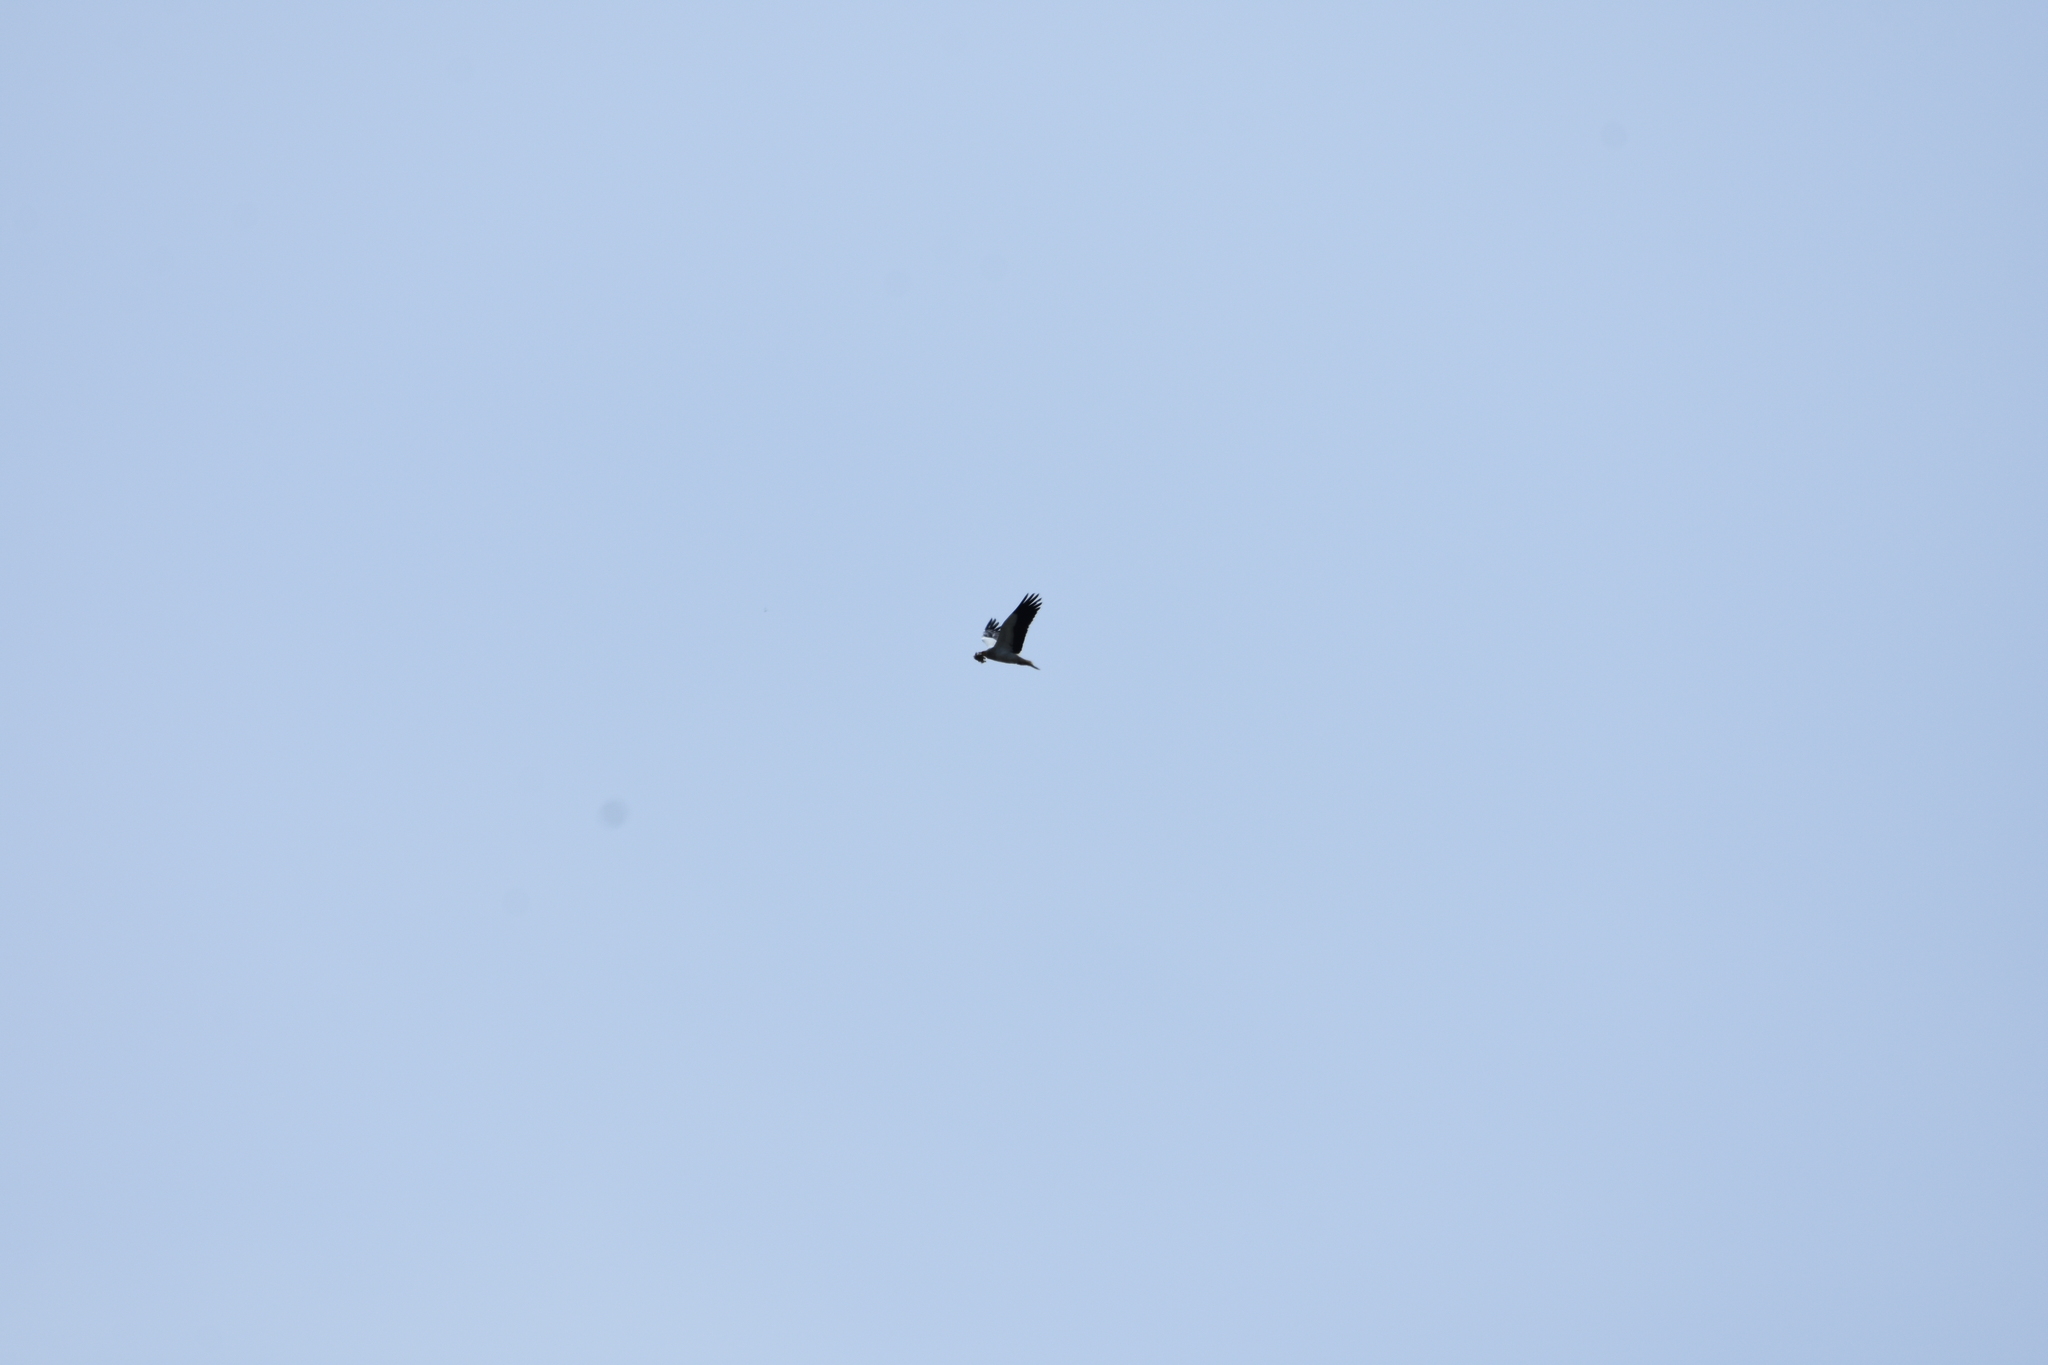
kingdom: Animalia
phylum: Chordata
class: Aves
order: Accipitriformes
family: Accipitridae
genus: Neophron
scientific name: Neophron percnopterus
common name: Egyptian vulture
